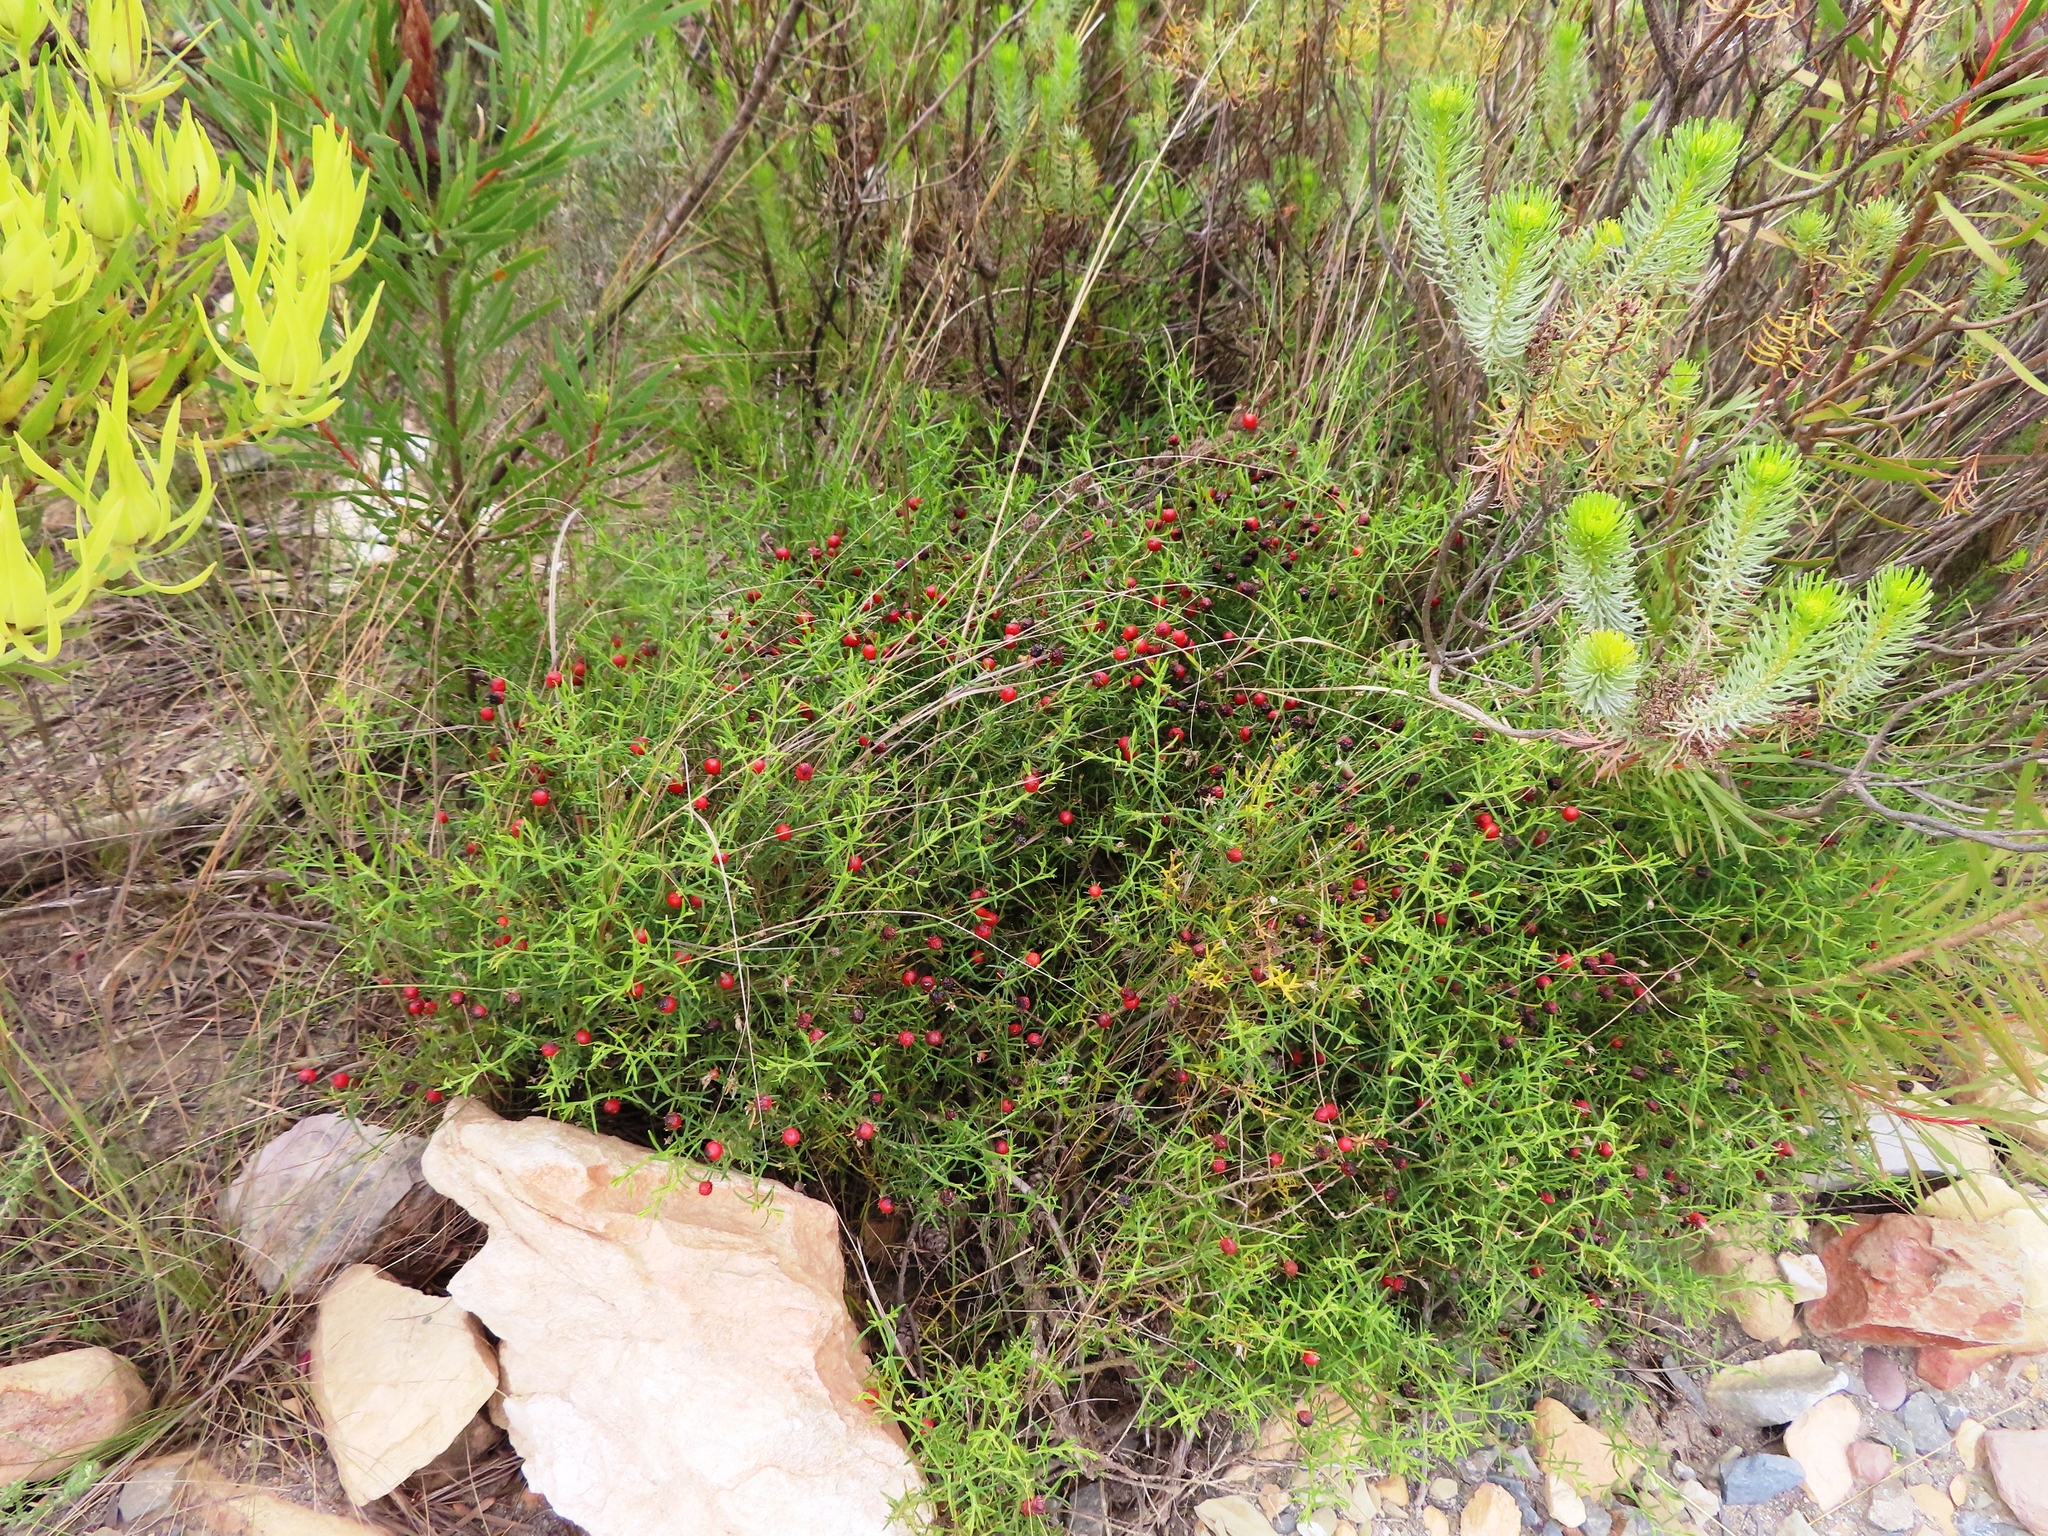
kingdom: Plantae
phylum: Tracheophyta
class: Magnoliopsida
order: Gentianales
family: Gentianaceae
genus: Chironia
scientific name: Chironia baccifera
